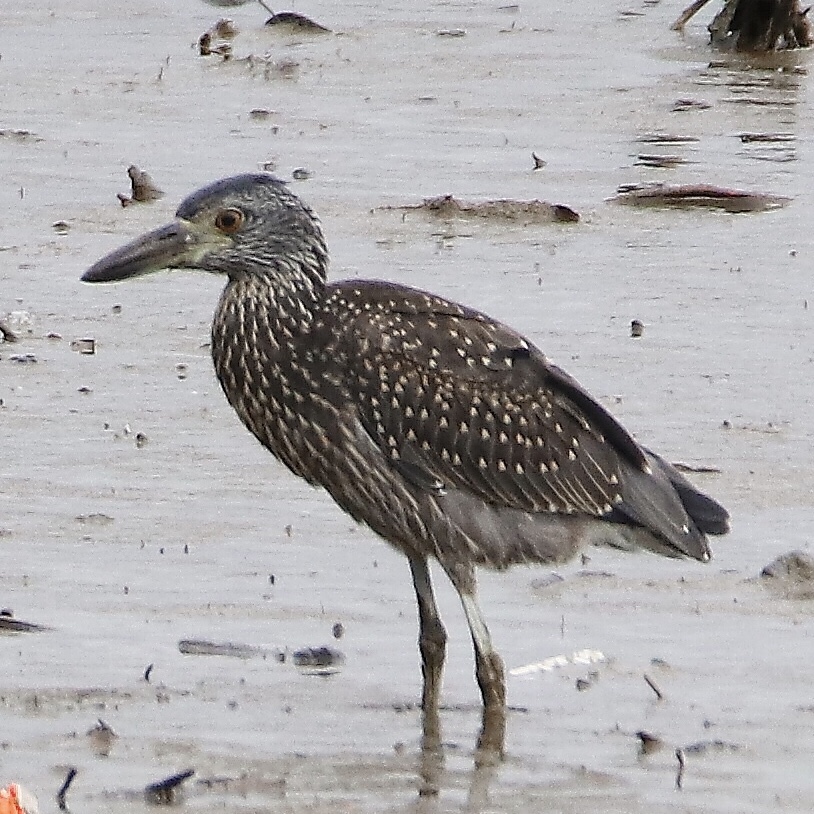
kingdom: Animalia
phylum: Chordata
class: Aves
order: Pelecaniformes
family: Ardeidae
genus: Nyctanassa
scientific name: Nyctanassa violacea
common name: Yellow-crowned night heron
